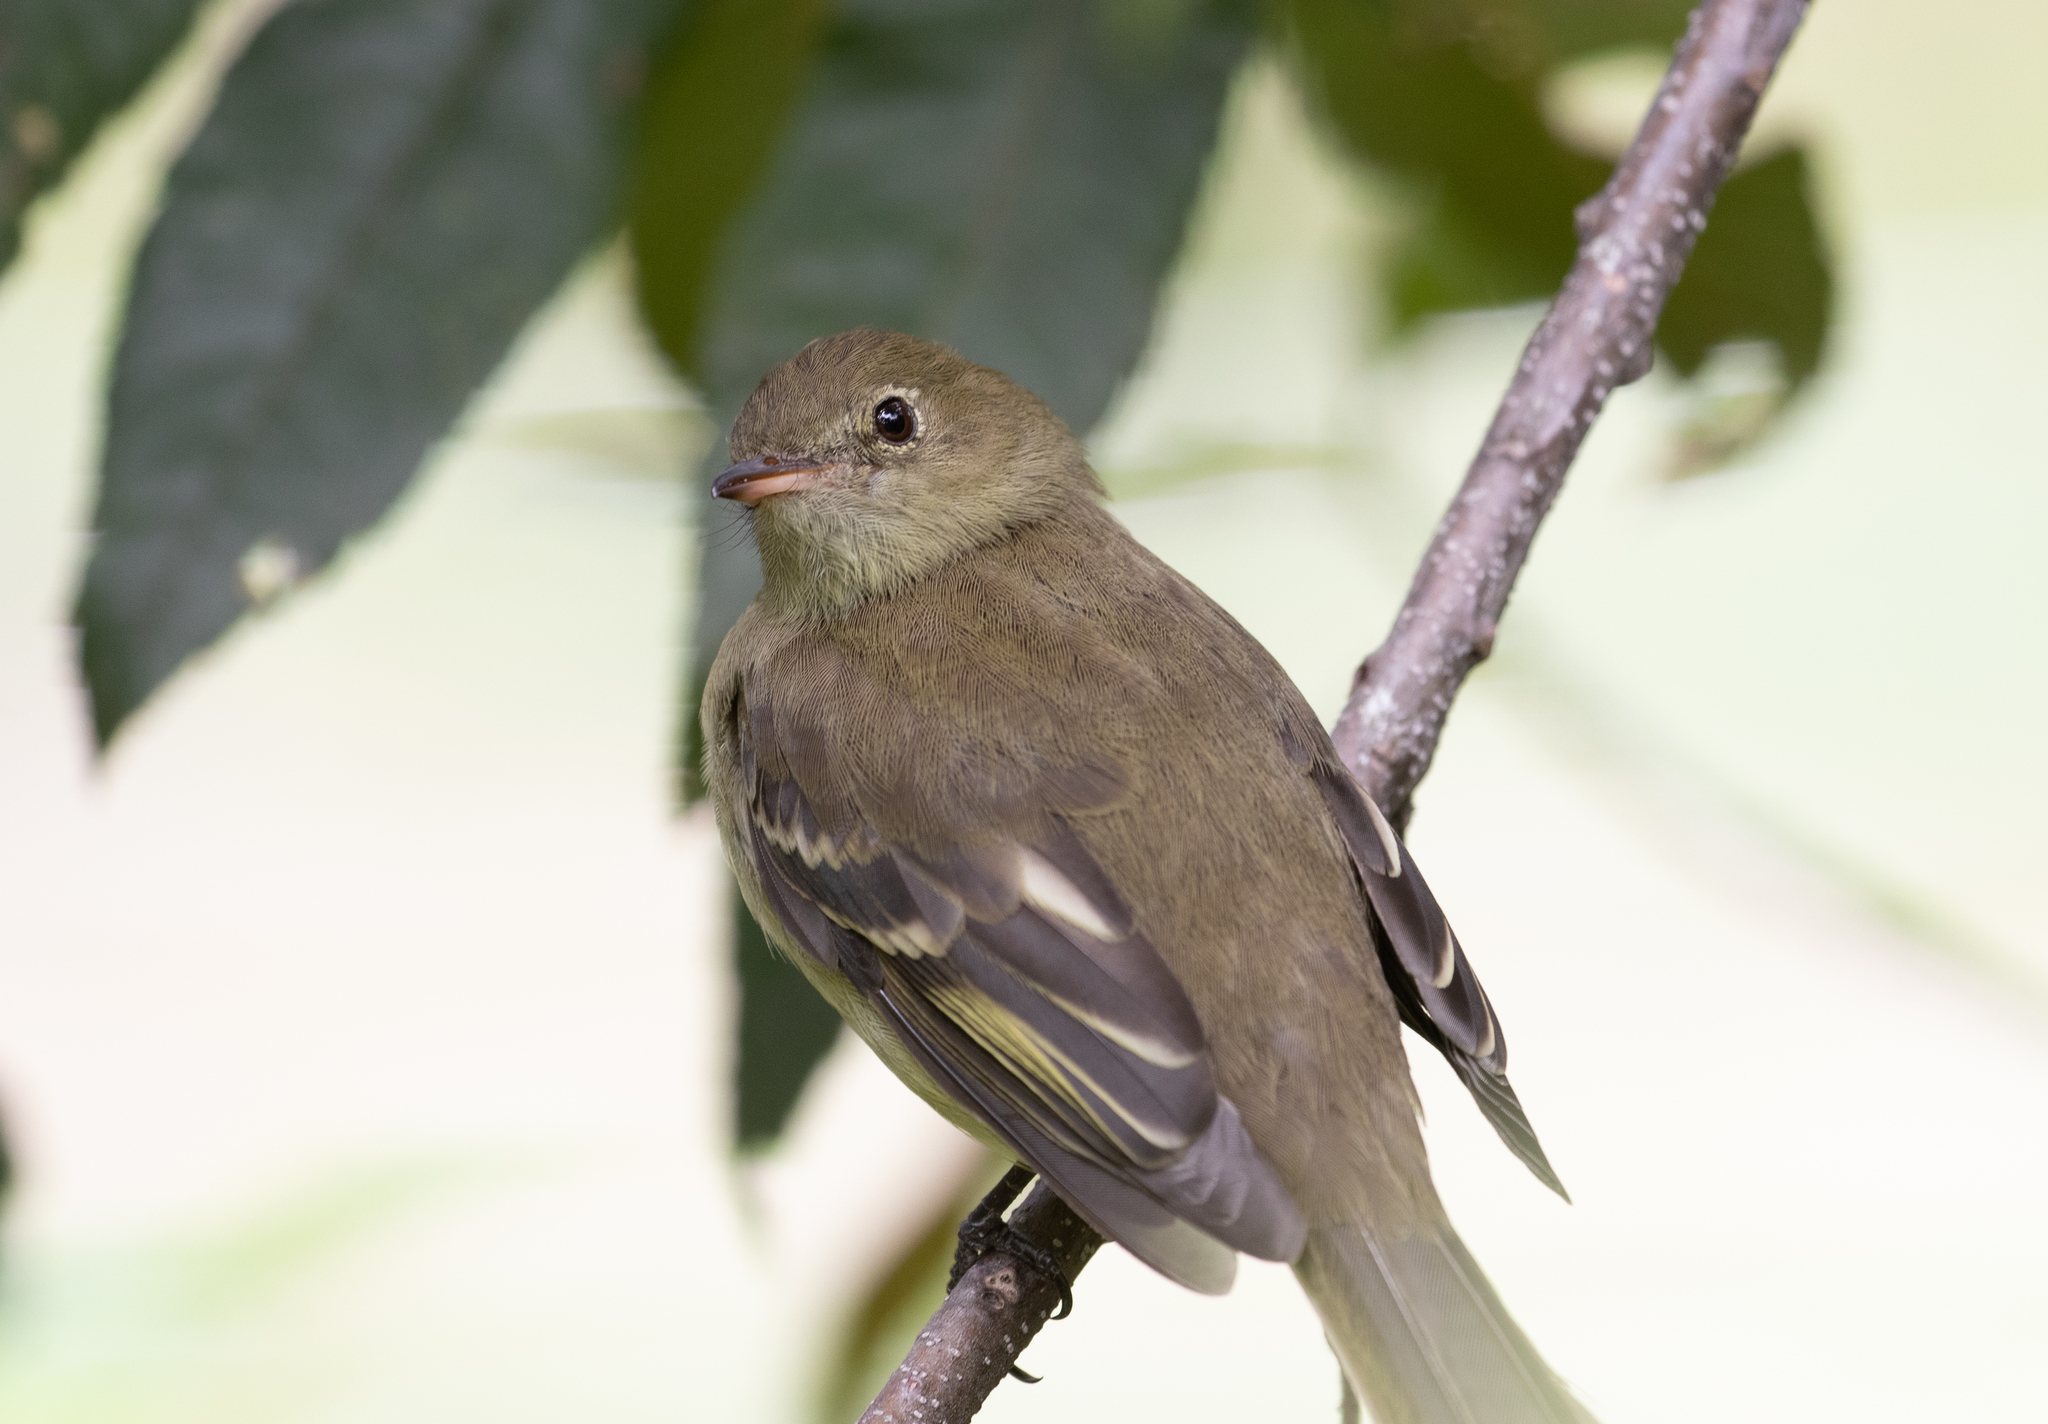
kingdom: Animalia
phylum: Chordata
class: Aves
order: Passeriformes
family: Tyrannidae
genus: Elaenia
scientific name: Elaenia frantzii
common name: Mountain elaenia
